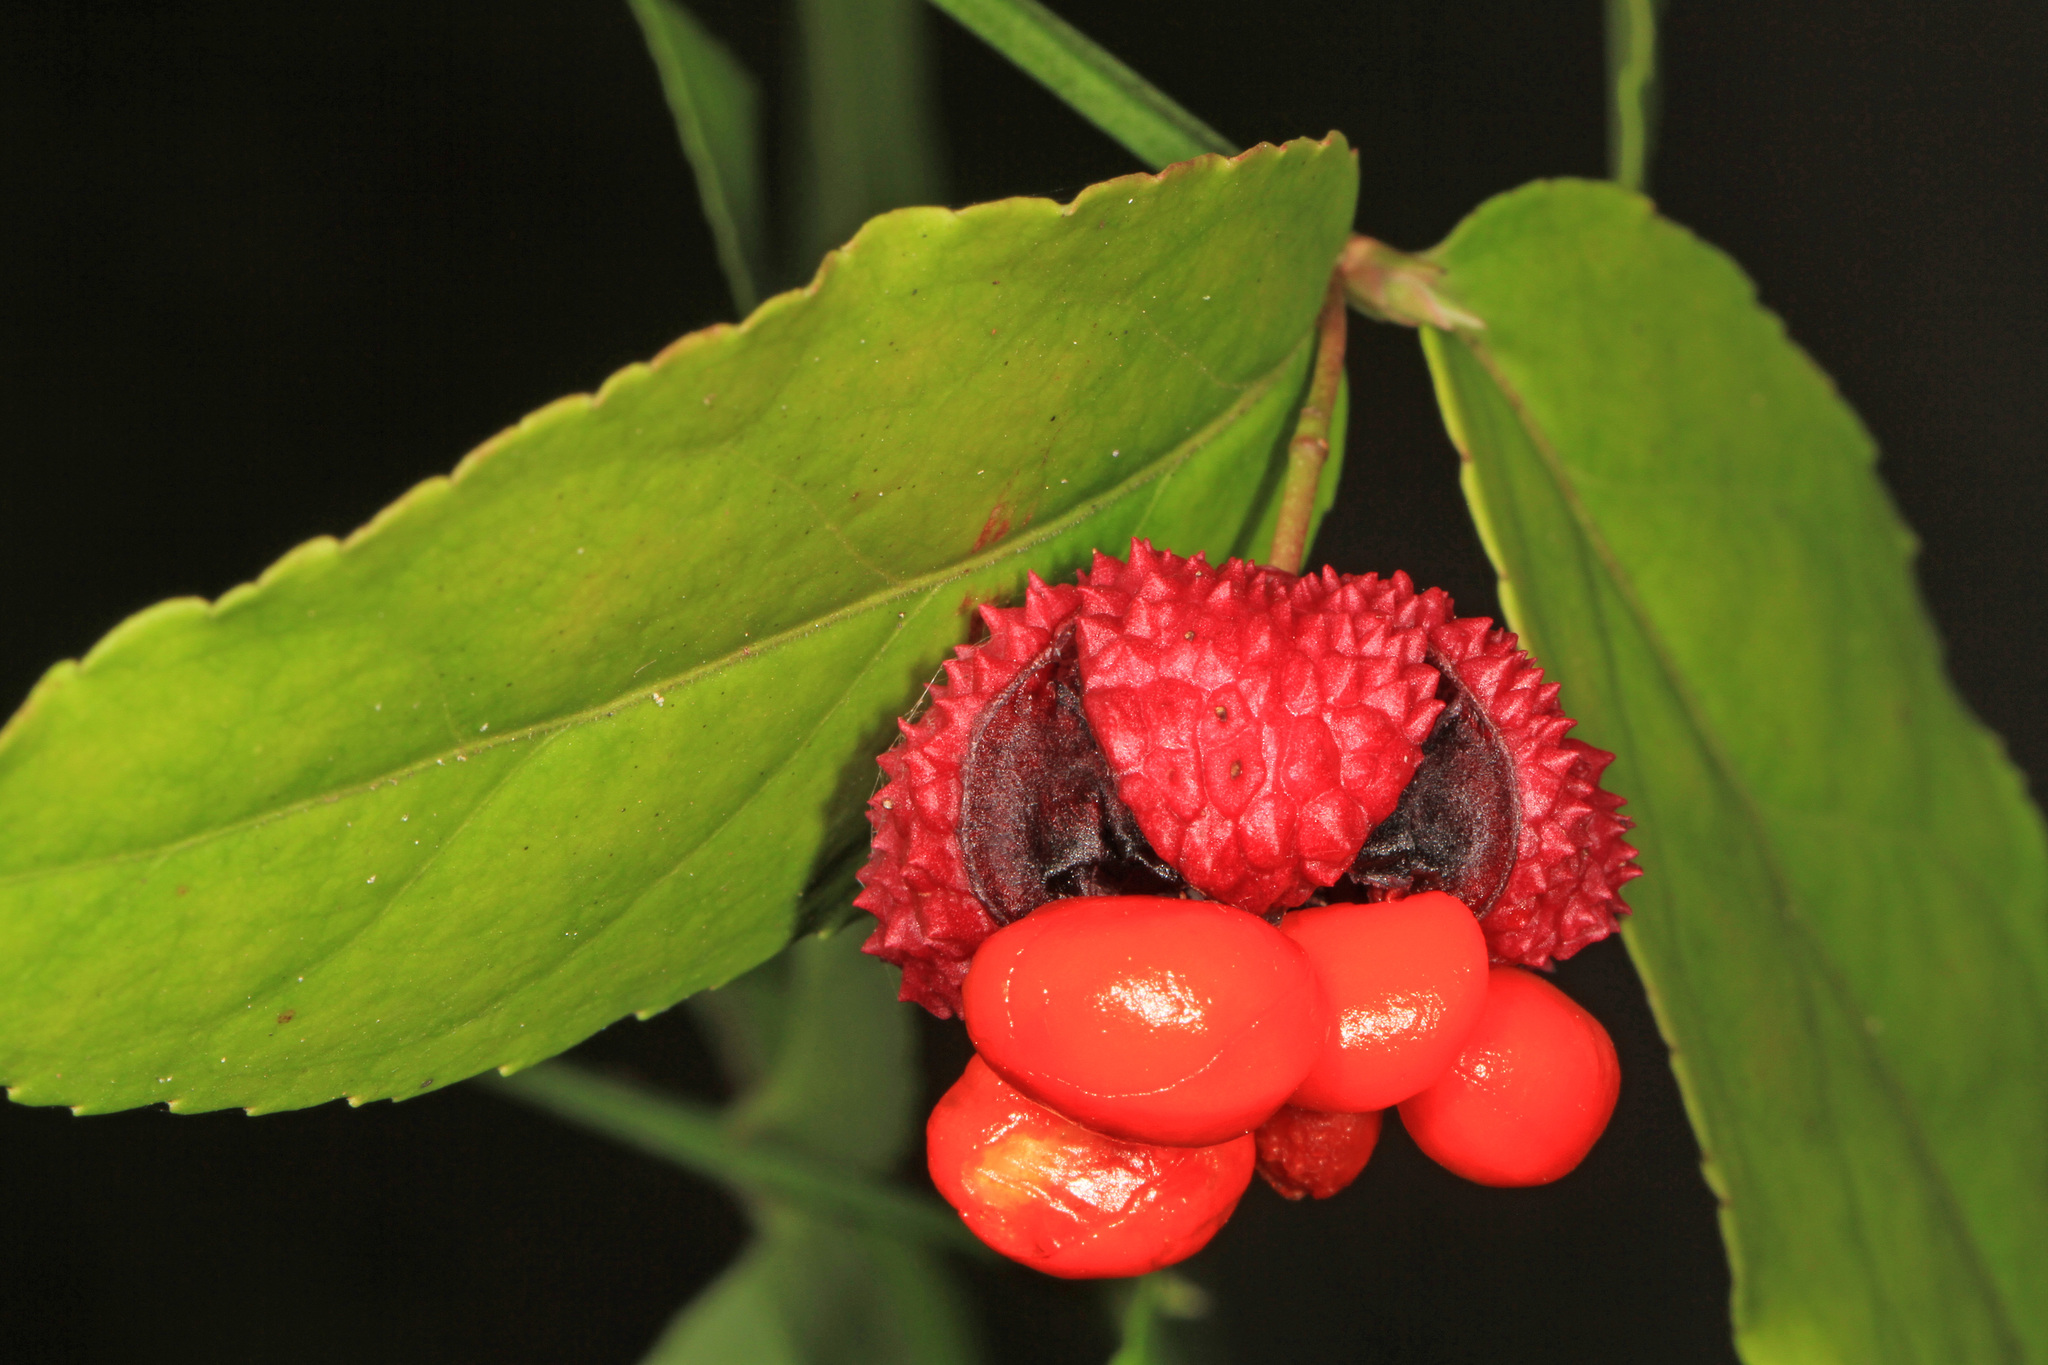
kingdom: Plantae
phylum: Tracheophyta
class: Magnoliopsida
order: Celastrales
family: Celastraceae
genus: Euonymus
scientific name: Euonymus americanus
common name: Bursting-heart
